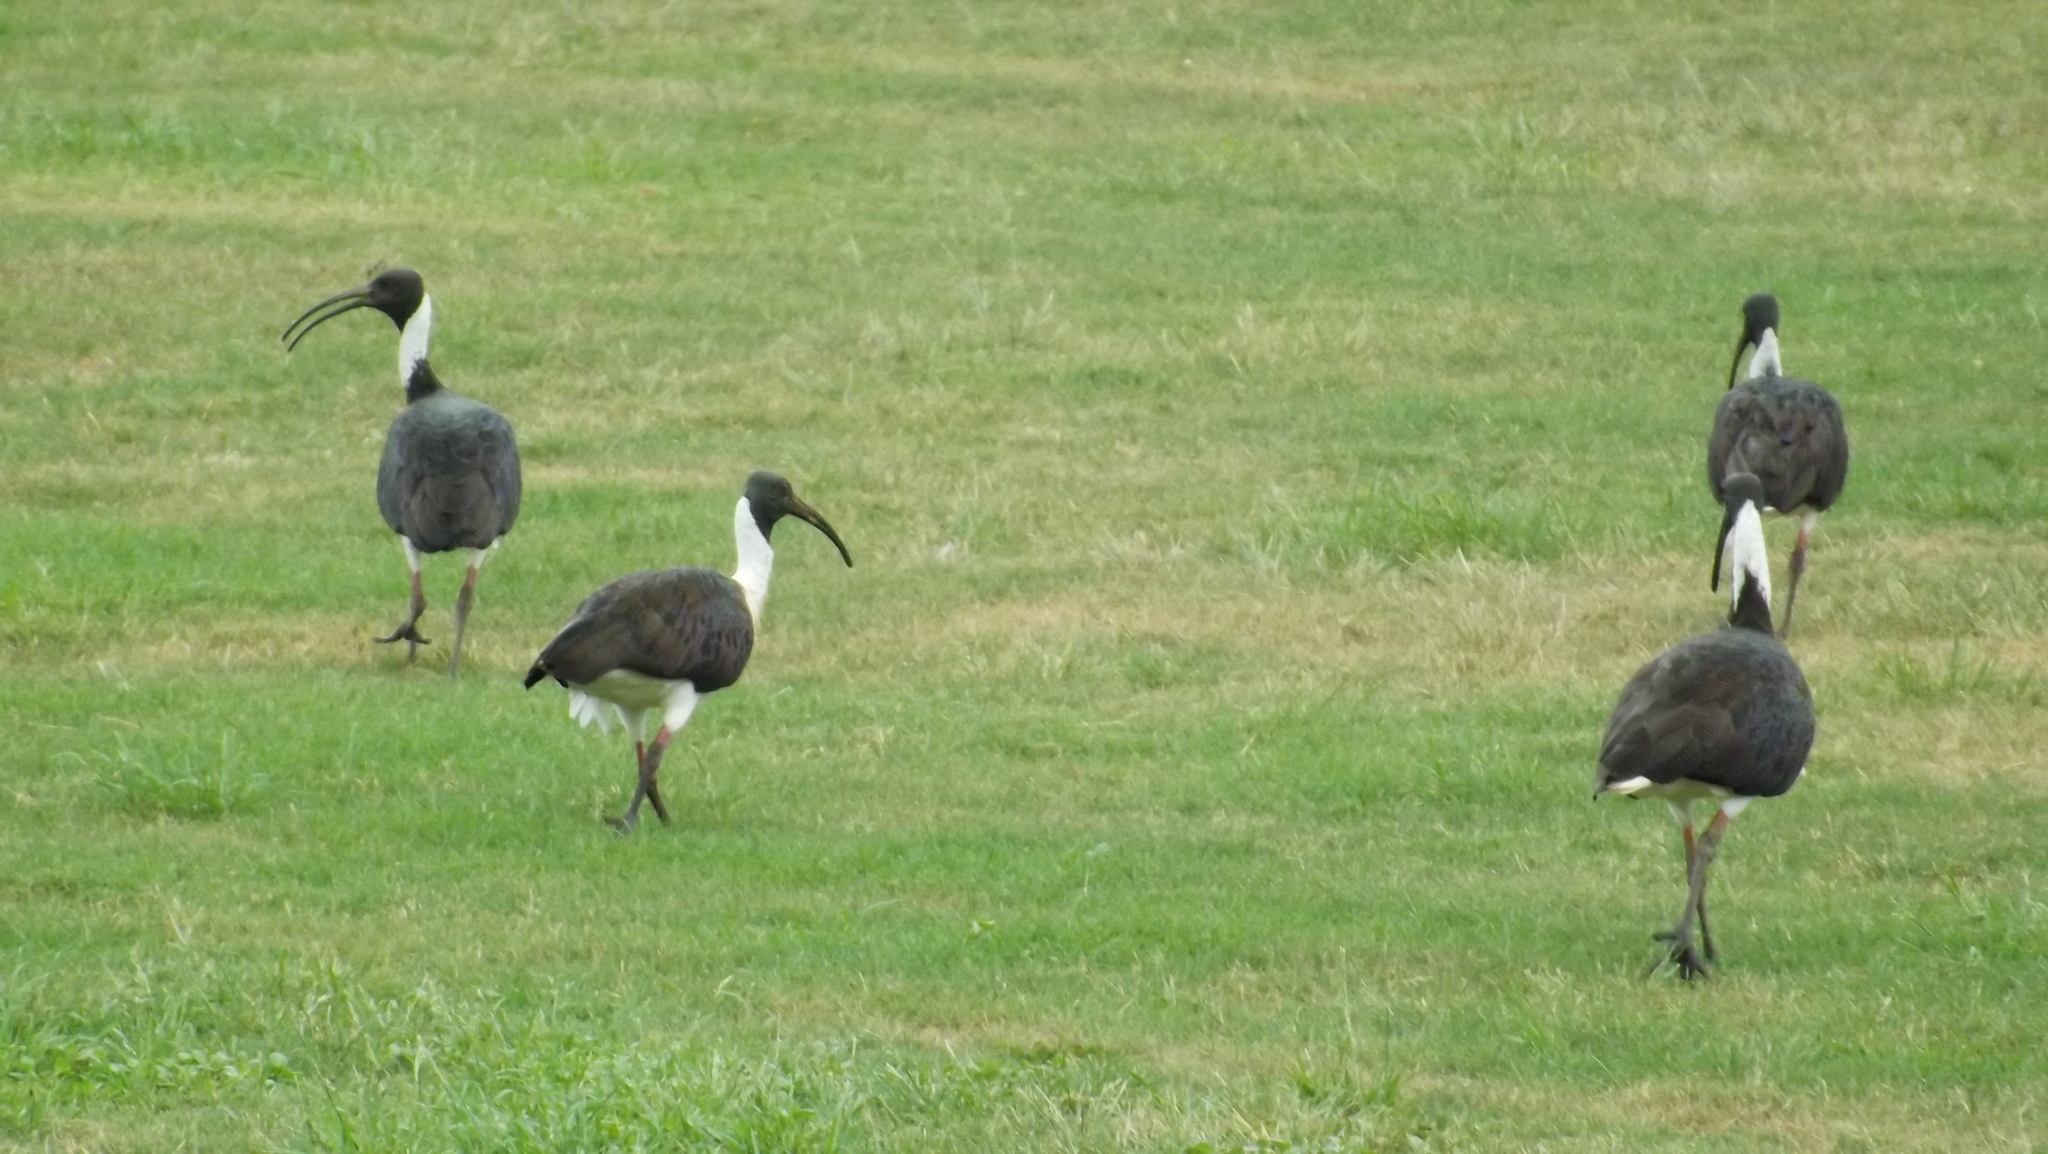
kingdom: Animalia
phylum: Chordata
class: Aves
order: Pelecaniformes
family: Threskiornithidae
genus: Threskiornis
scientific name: Threskiornis spinicollis
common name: Straw-necked ibis
